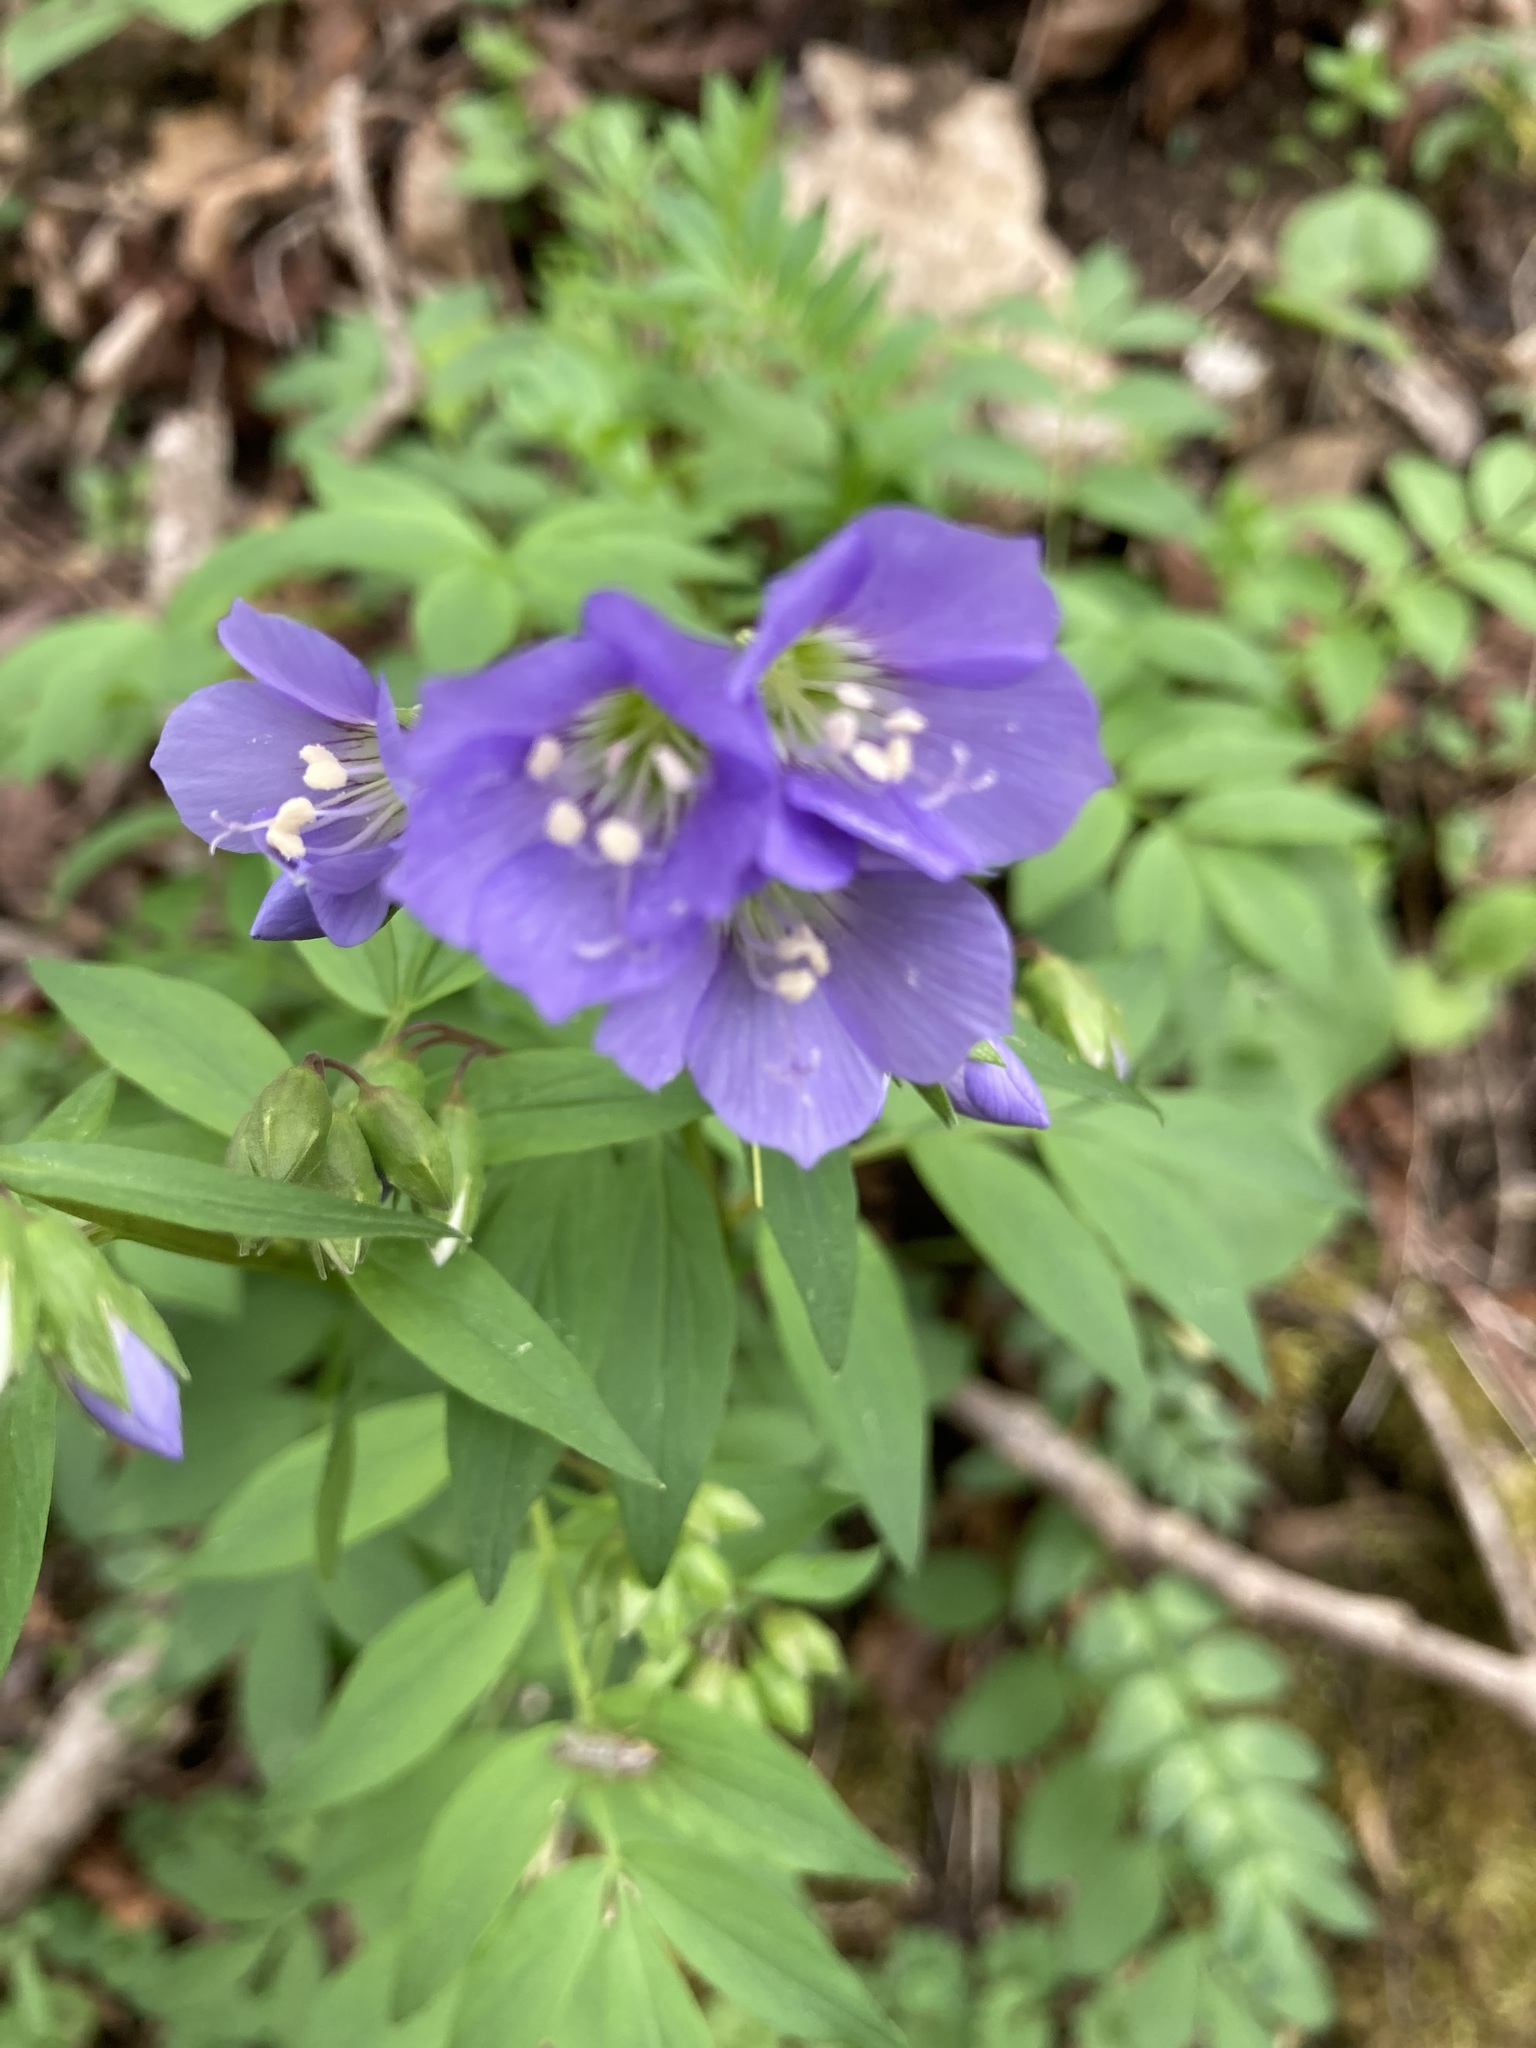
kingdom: Plantae
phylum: Tracheophyta
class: Magnoliopsida
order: Ericales
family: Polemoniaceae
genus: Polemonium
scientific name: Polemonium reptans
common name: Creeping jacob's-ladder
